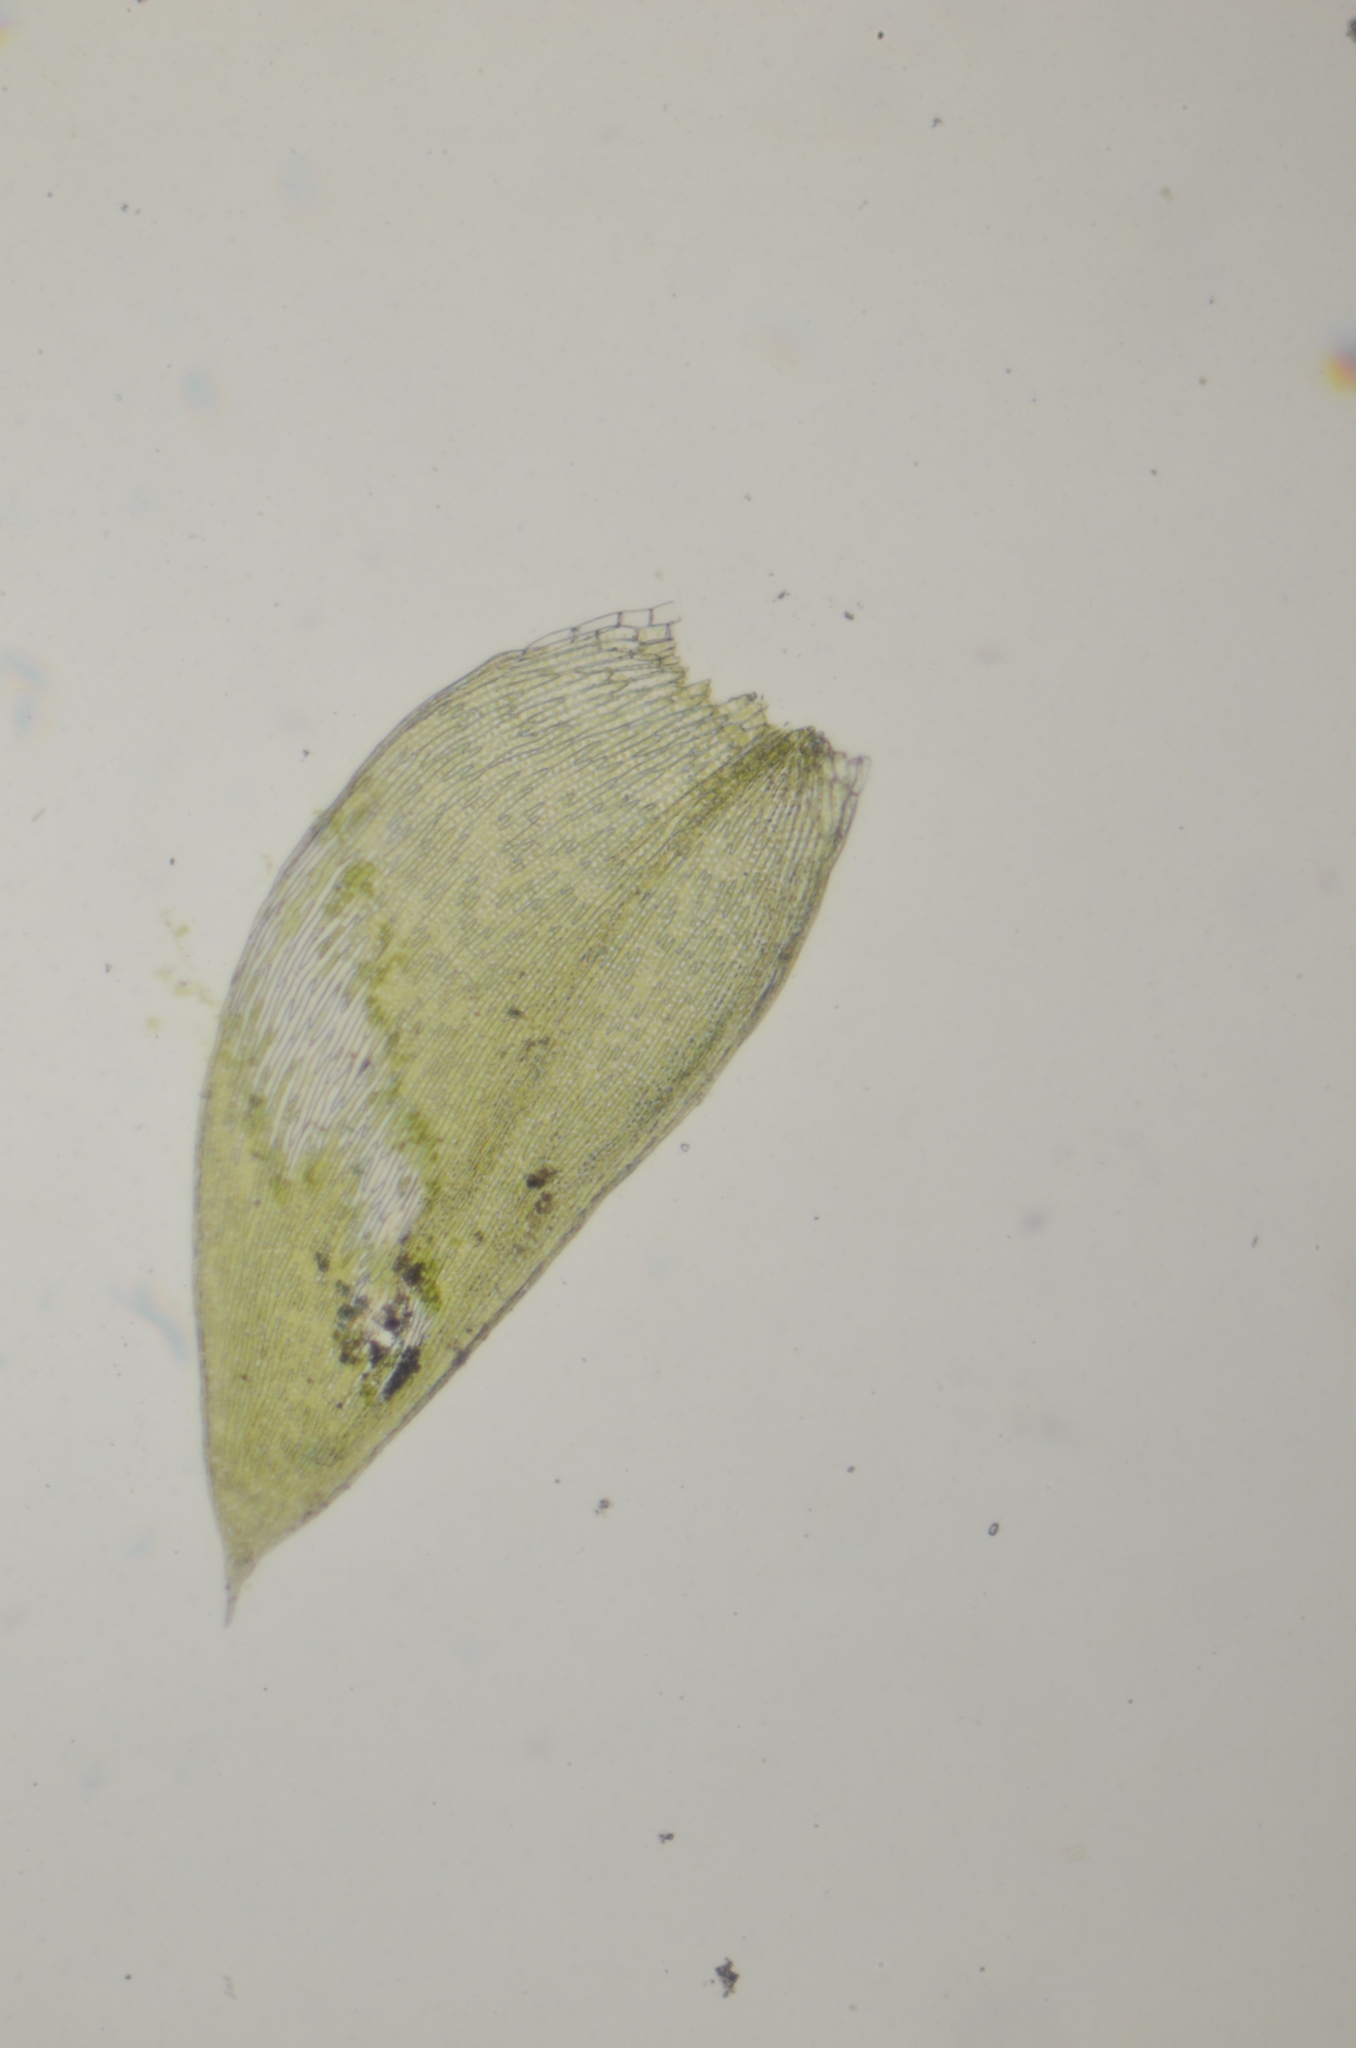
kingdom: Plantae
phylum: Bryophyta
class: Bryopsida
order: Hypnales
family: Plagiotheciaceae
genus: Plagiothecium
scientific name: Plagiothecium laetum
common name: Bright silk moss
